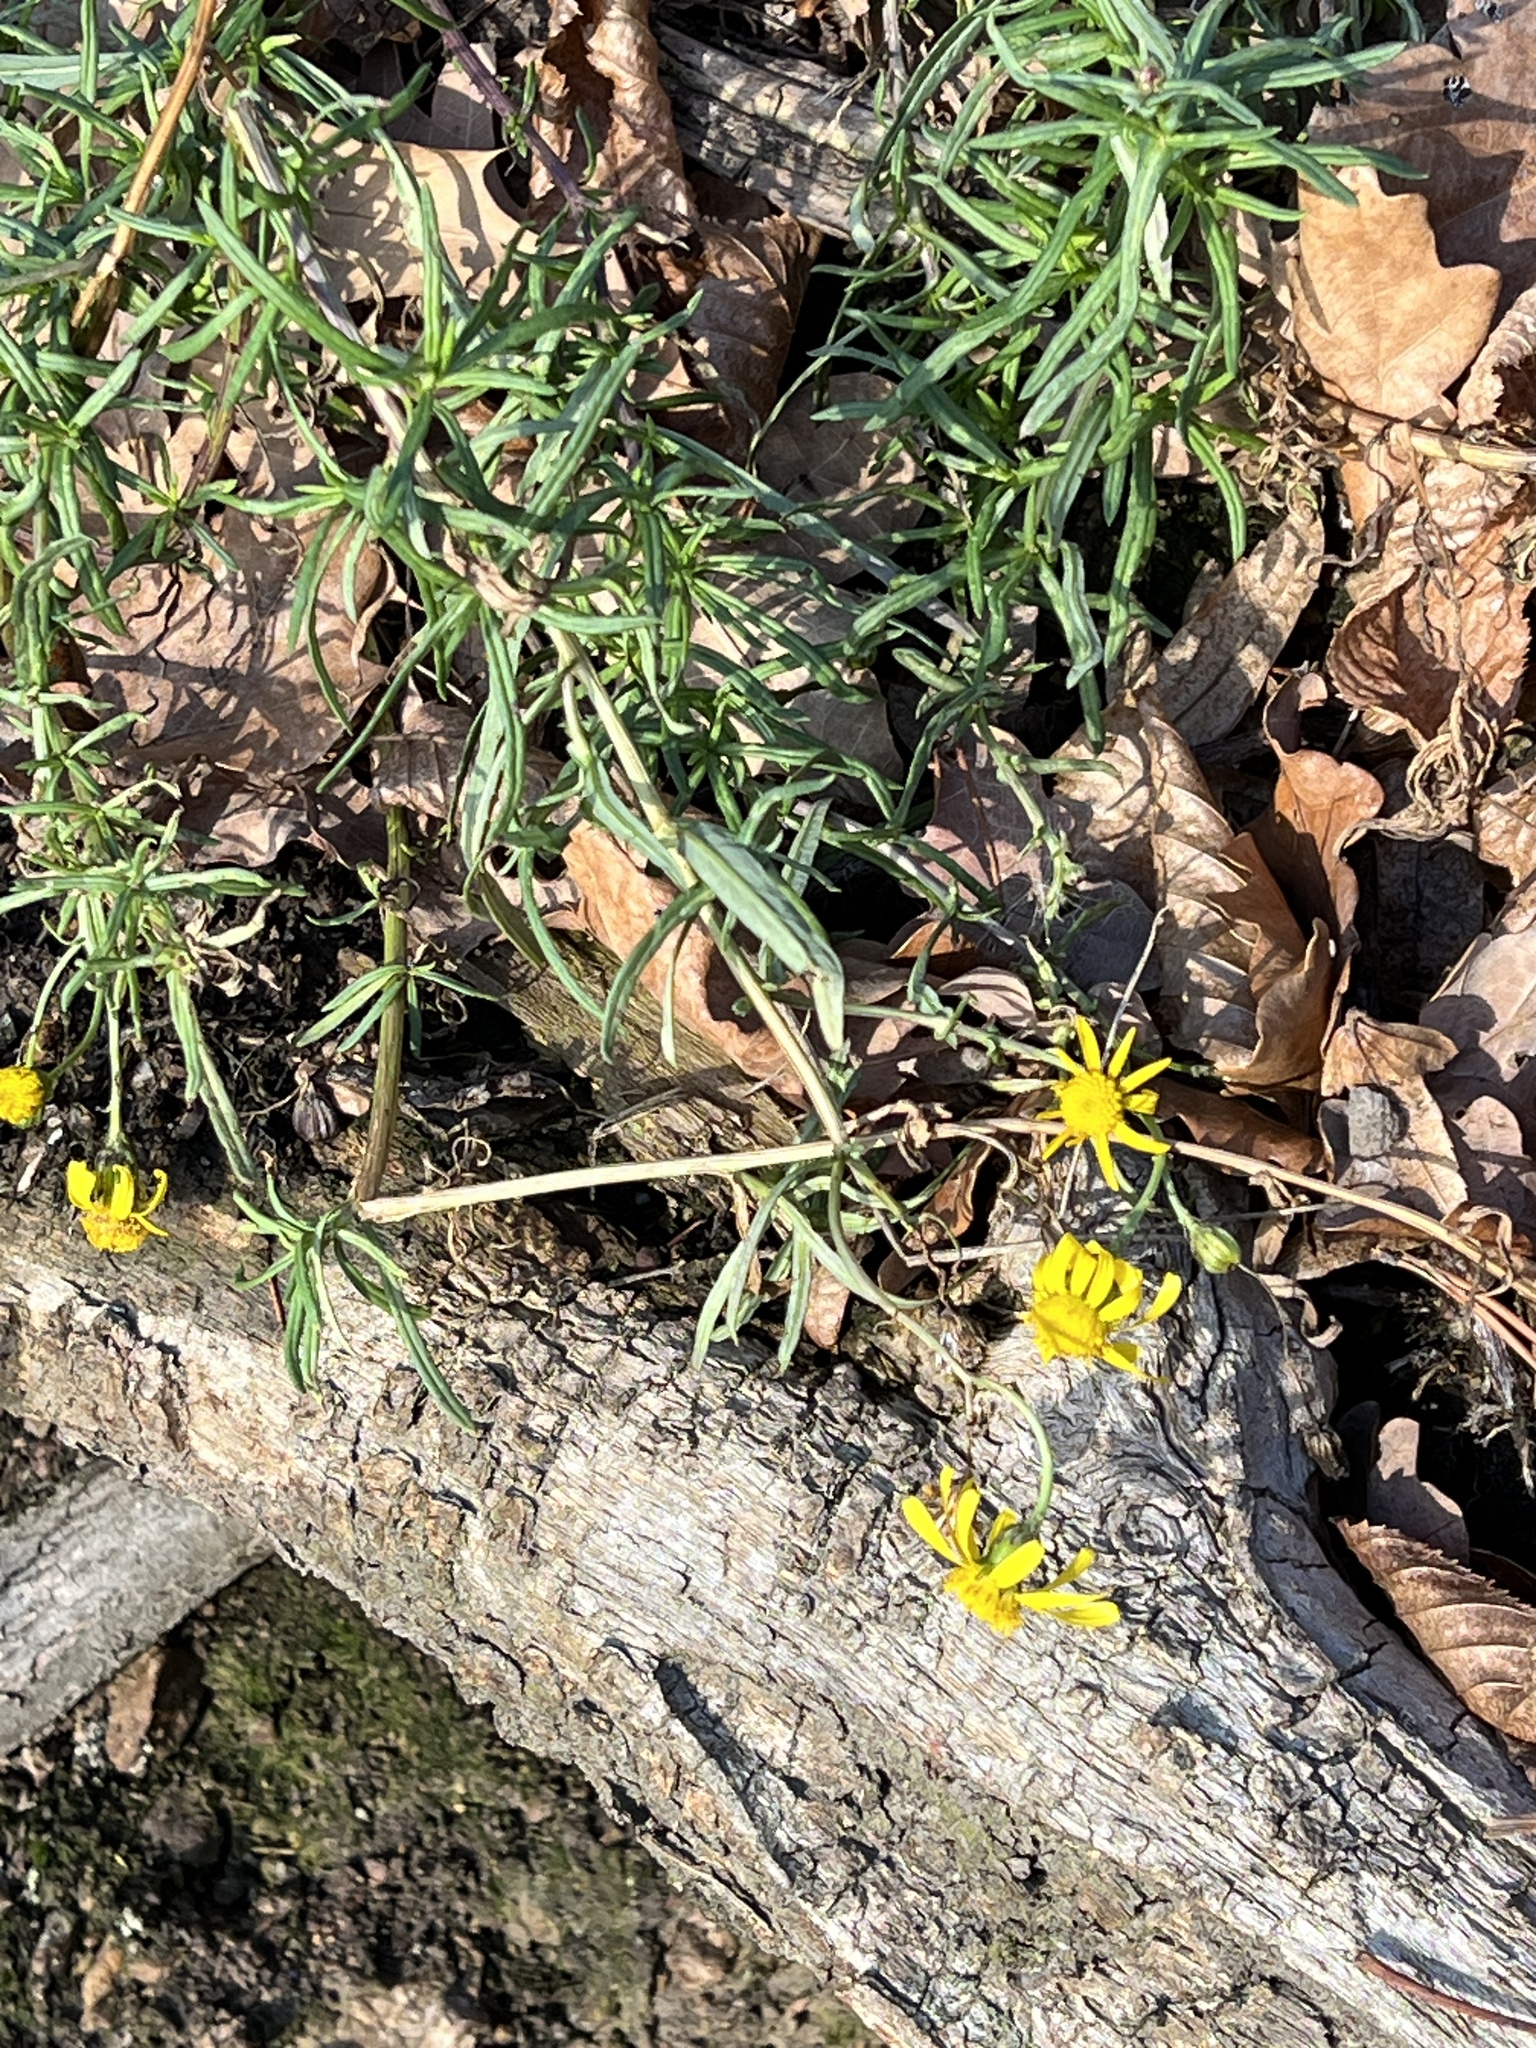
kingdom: Plantae
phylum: Tracheophyta
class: Magnoliopsida
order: Asterales
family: Asteraceae
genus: Senecio
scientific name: Senecio inaequidens
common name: Narrow-leaved ragwort
